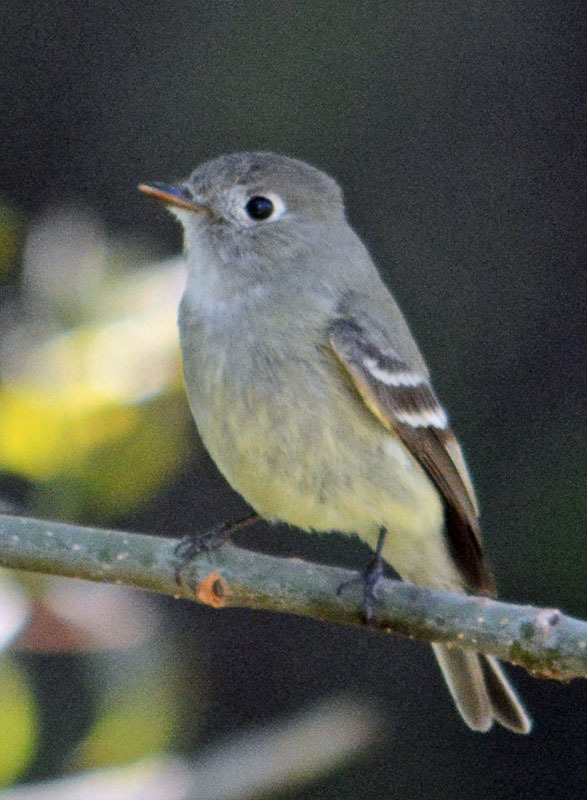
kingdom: Animalia
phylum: Chordata
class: Aves
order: Passeriformes
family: Tyrannidae
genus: Empidonax
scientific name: Empidonax hammondii
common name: Hammond's flycatcher
